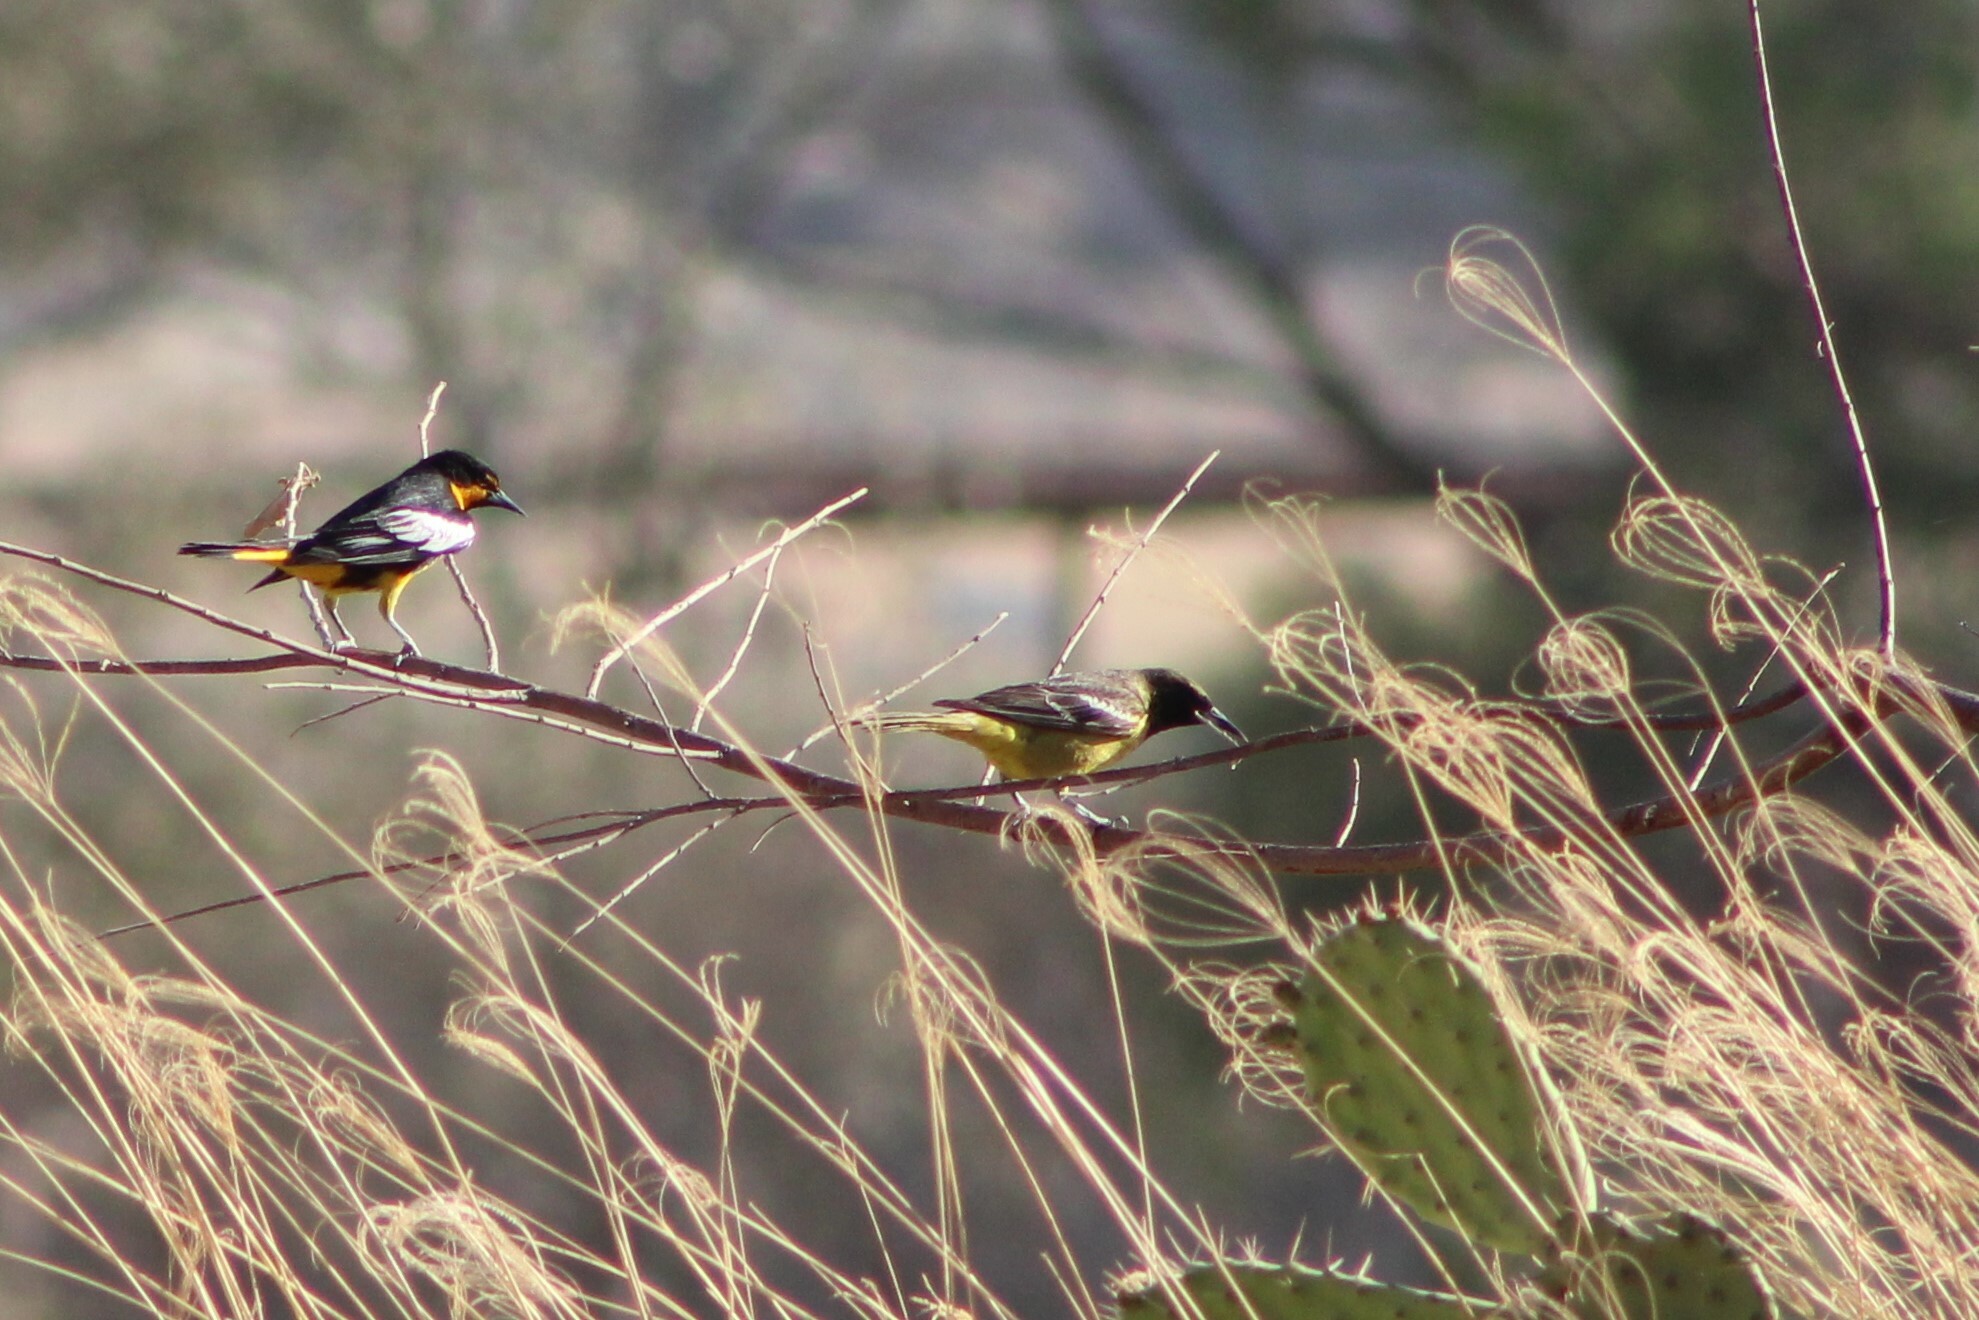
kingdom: Animalia
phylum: Chordata
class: Aves
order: Passeriformes
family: Icteridae
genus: Icterus
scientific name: Icterus abeillei
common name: Black-backed oriole
